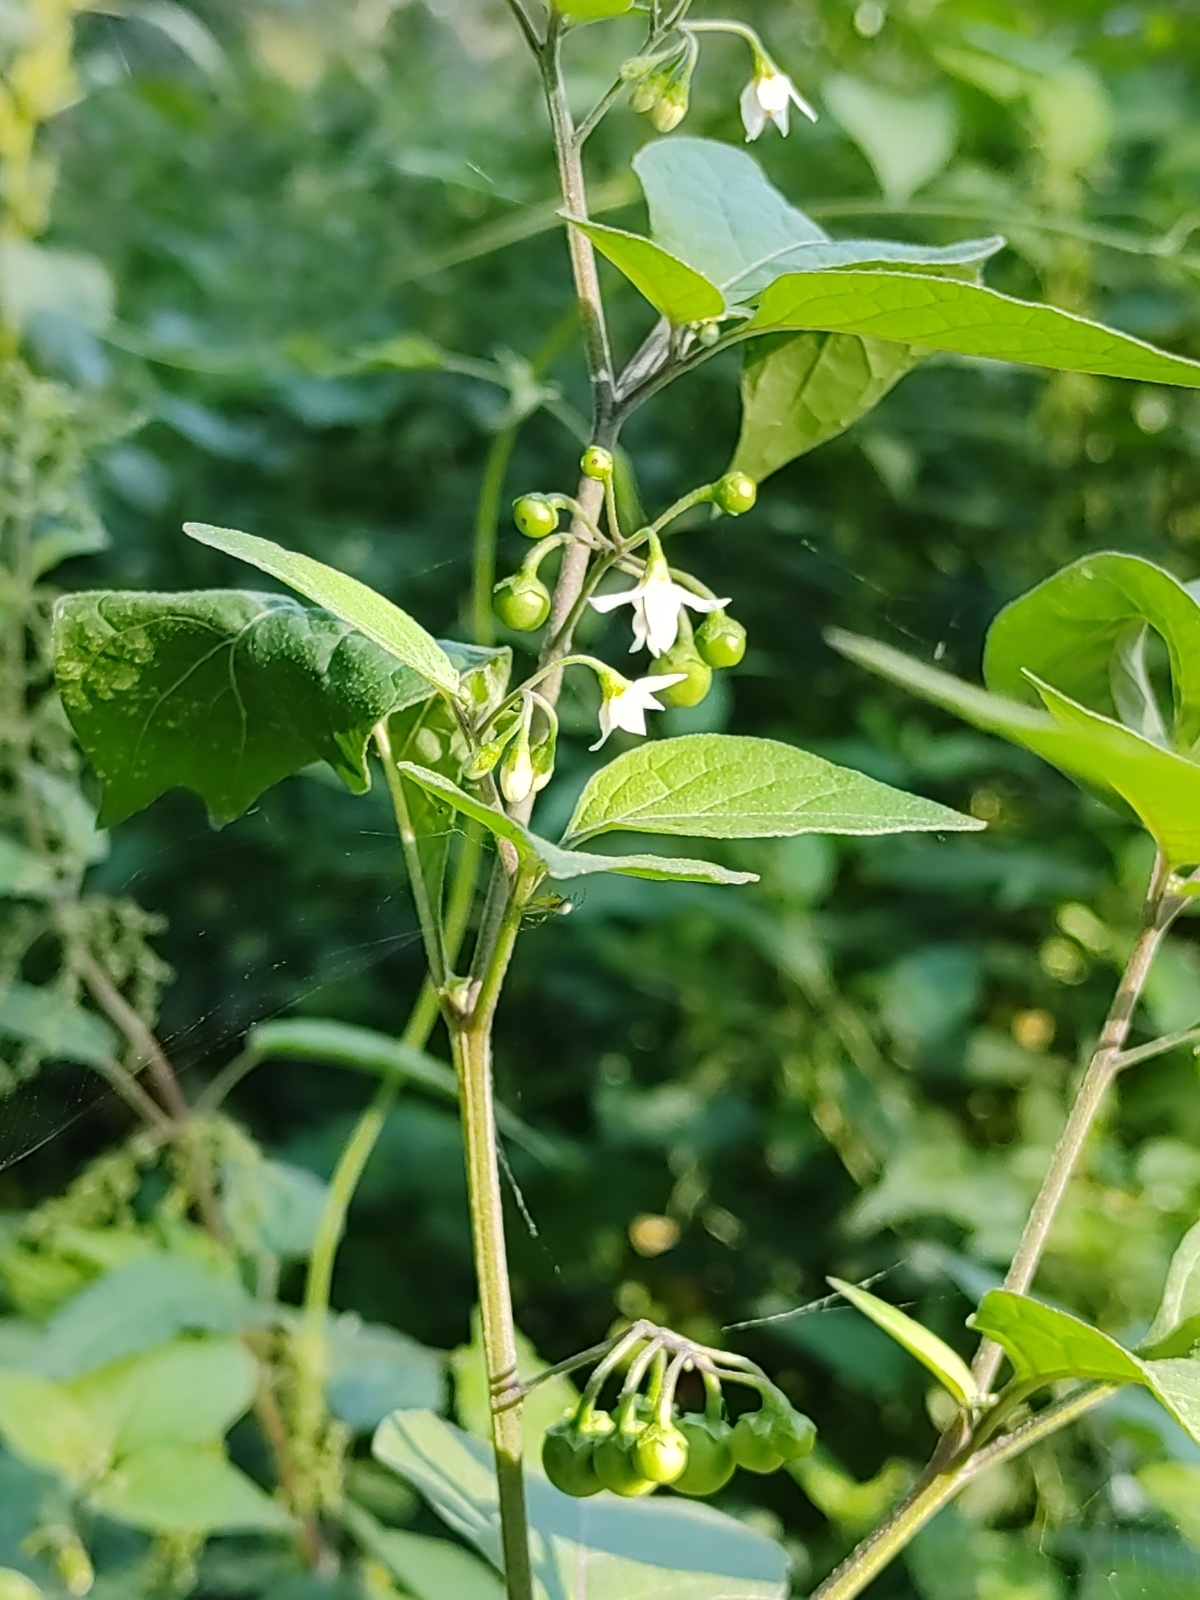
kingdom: Plantae
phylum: Tracheophyta
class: Magnoliopsida
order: Solanales
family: Solanaceae
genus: Solanum
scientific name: Solanum nigrum
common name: Black nightshade
